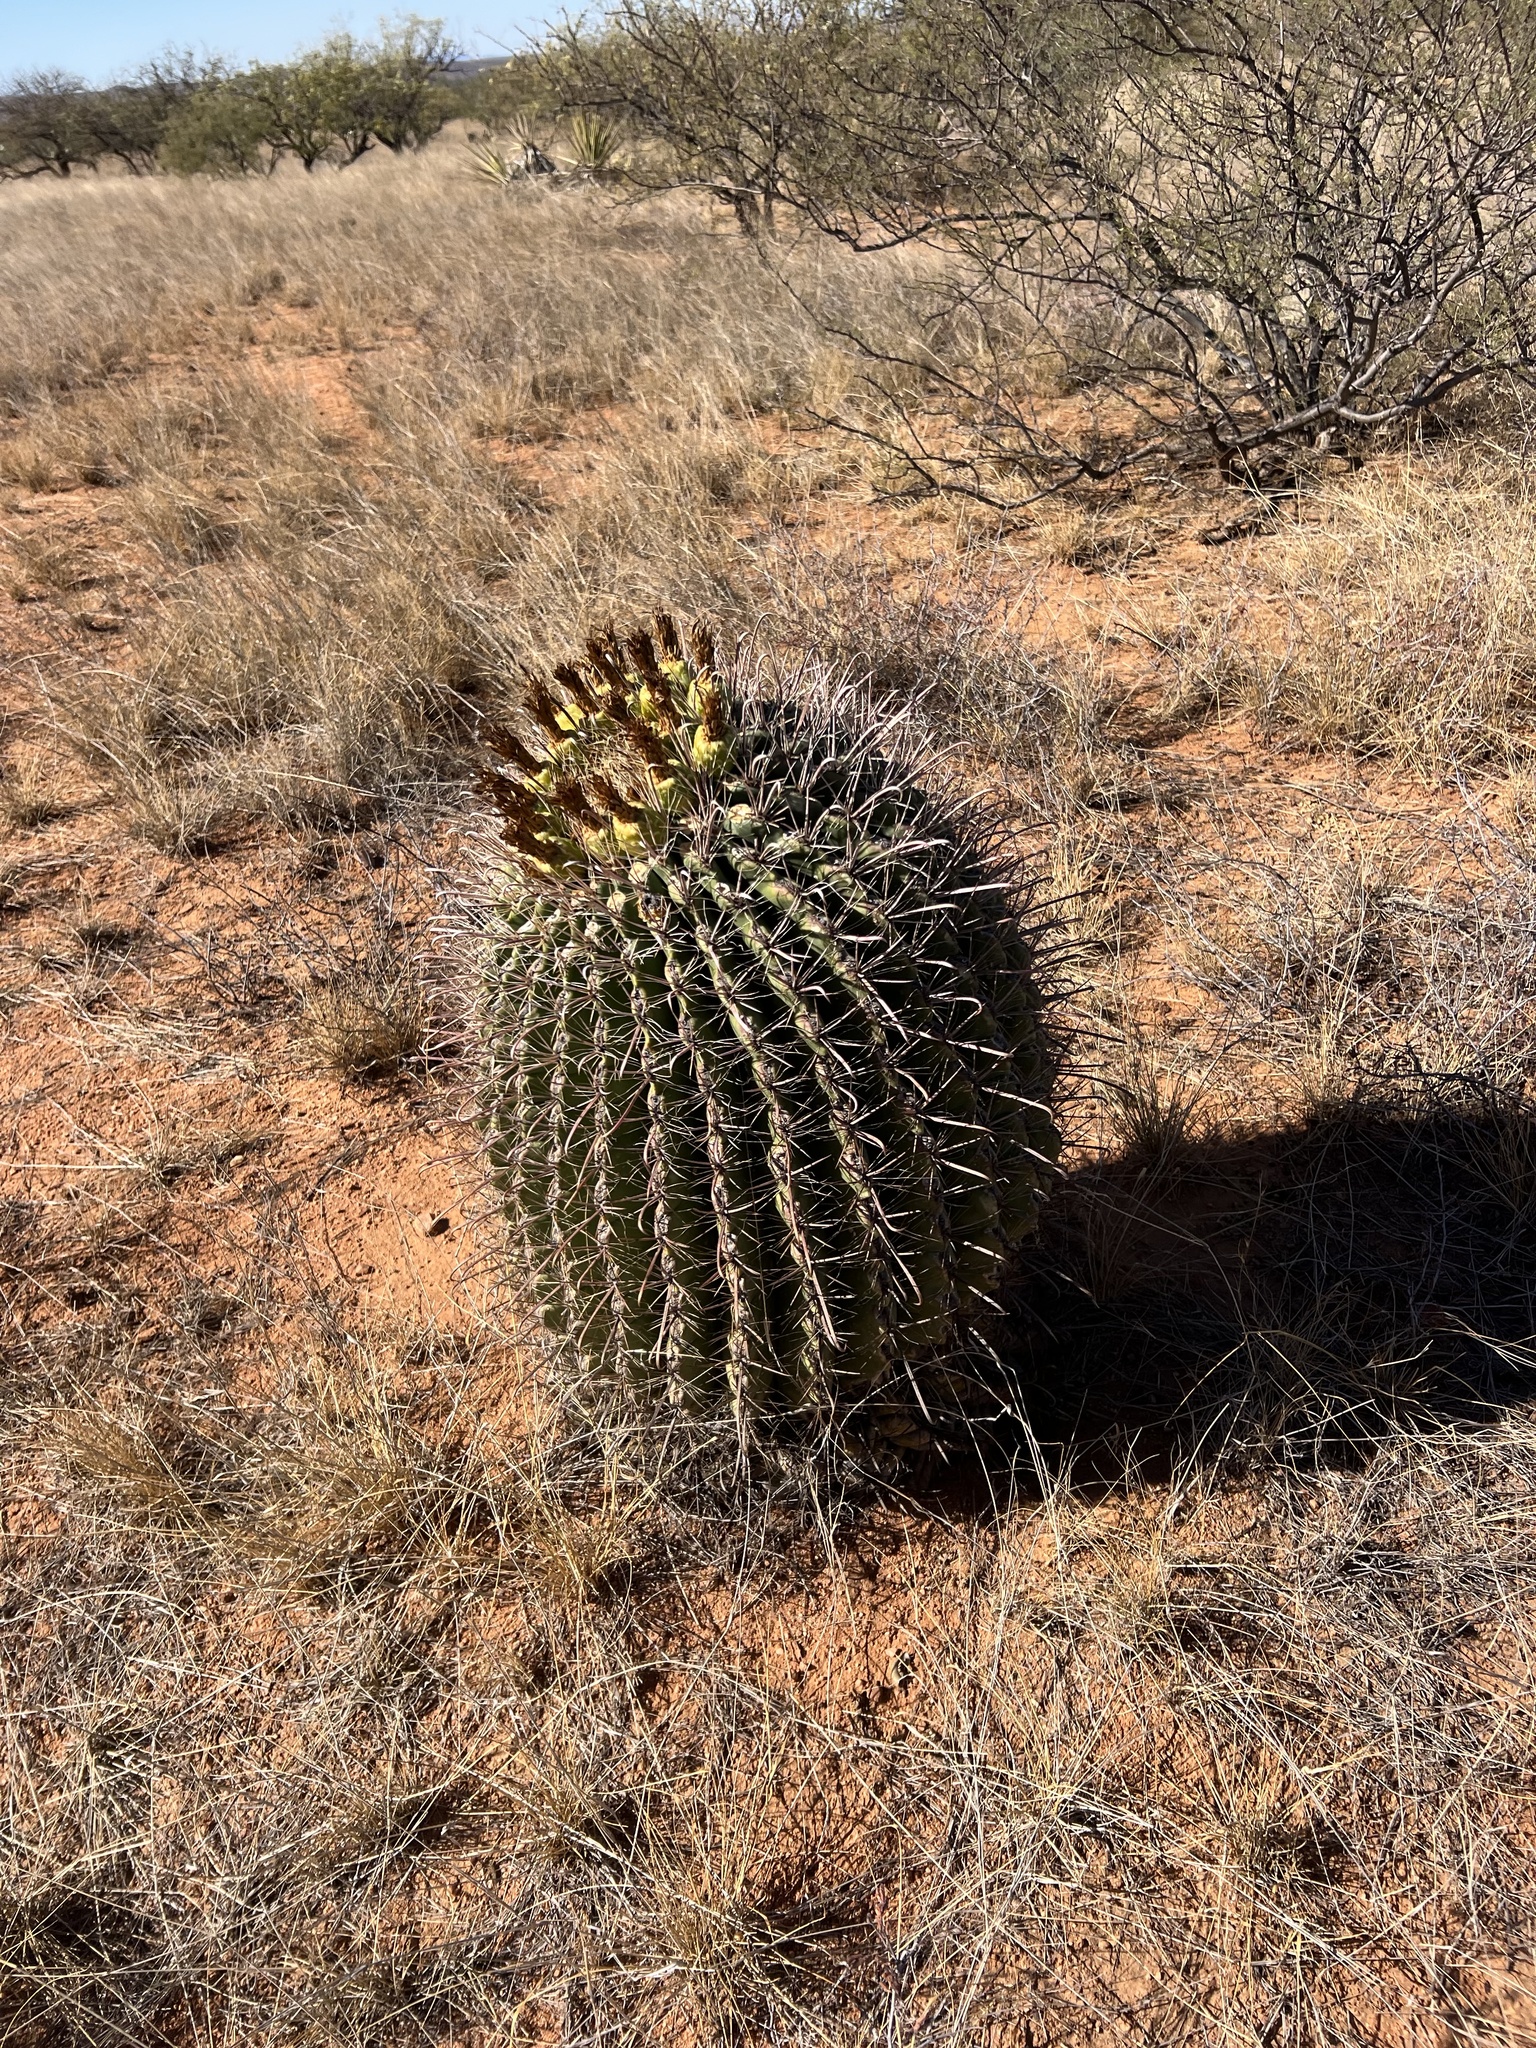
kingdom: Plantae
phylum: Tracheophyta
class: Magnoliopsida
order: Caryophyllales
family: Cactaceae
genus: Ferocactus
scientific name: Ferocactus wislizeni
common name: Candy barrel cactus
